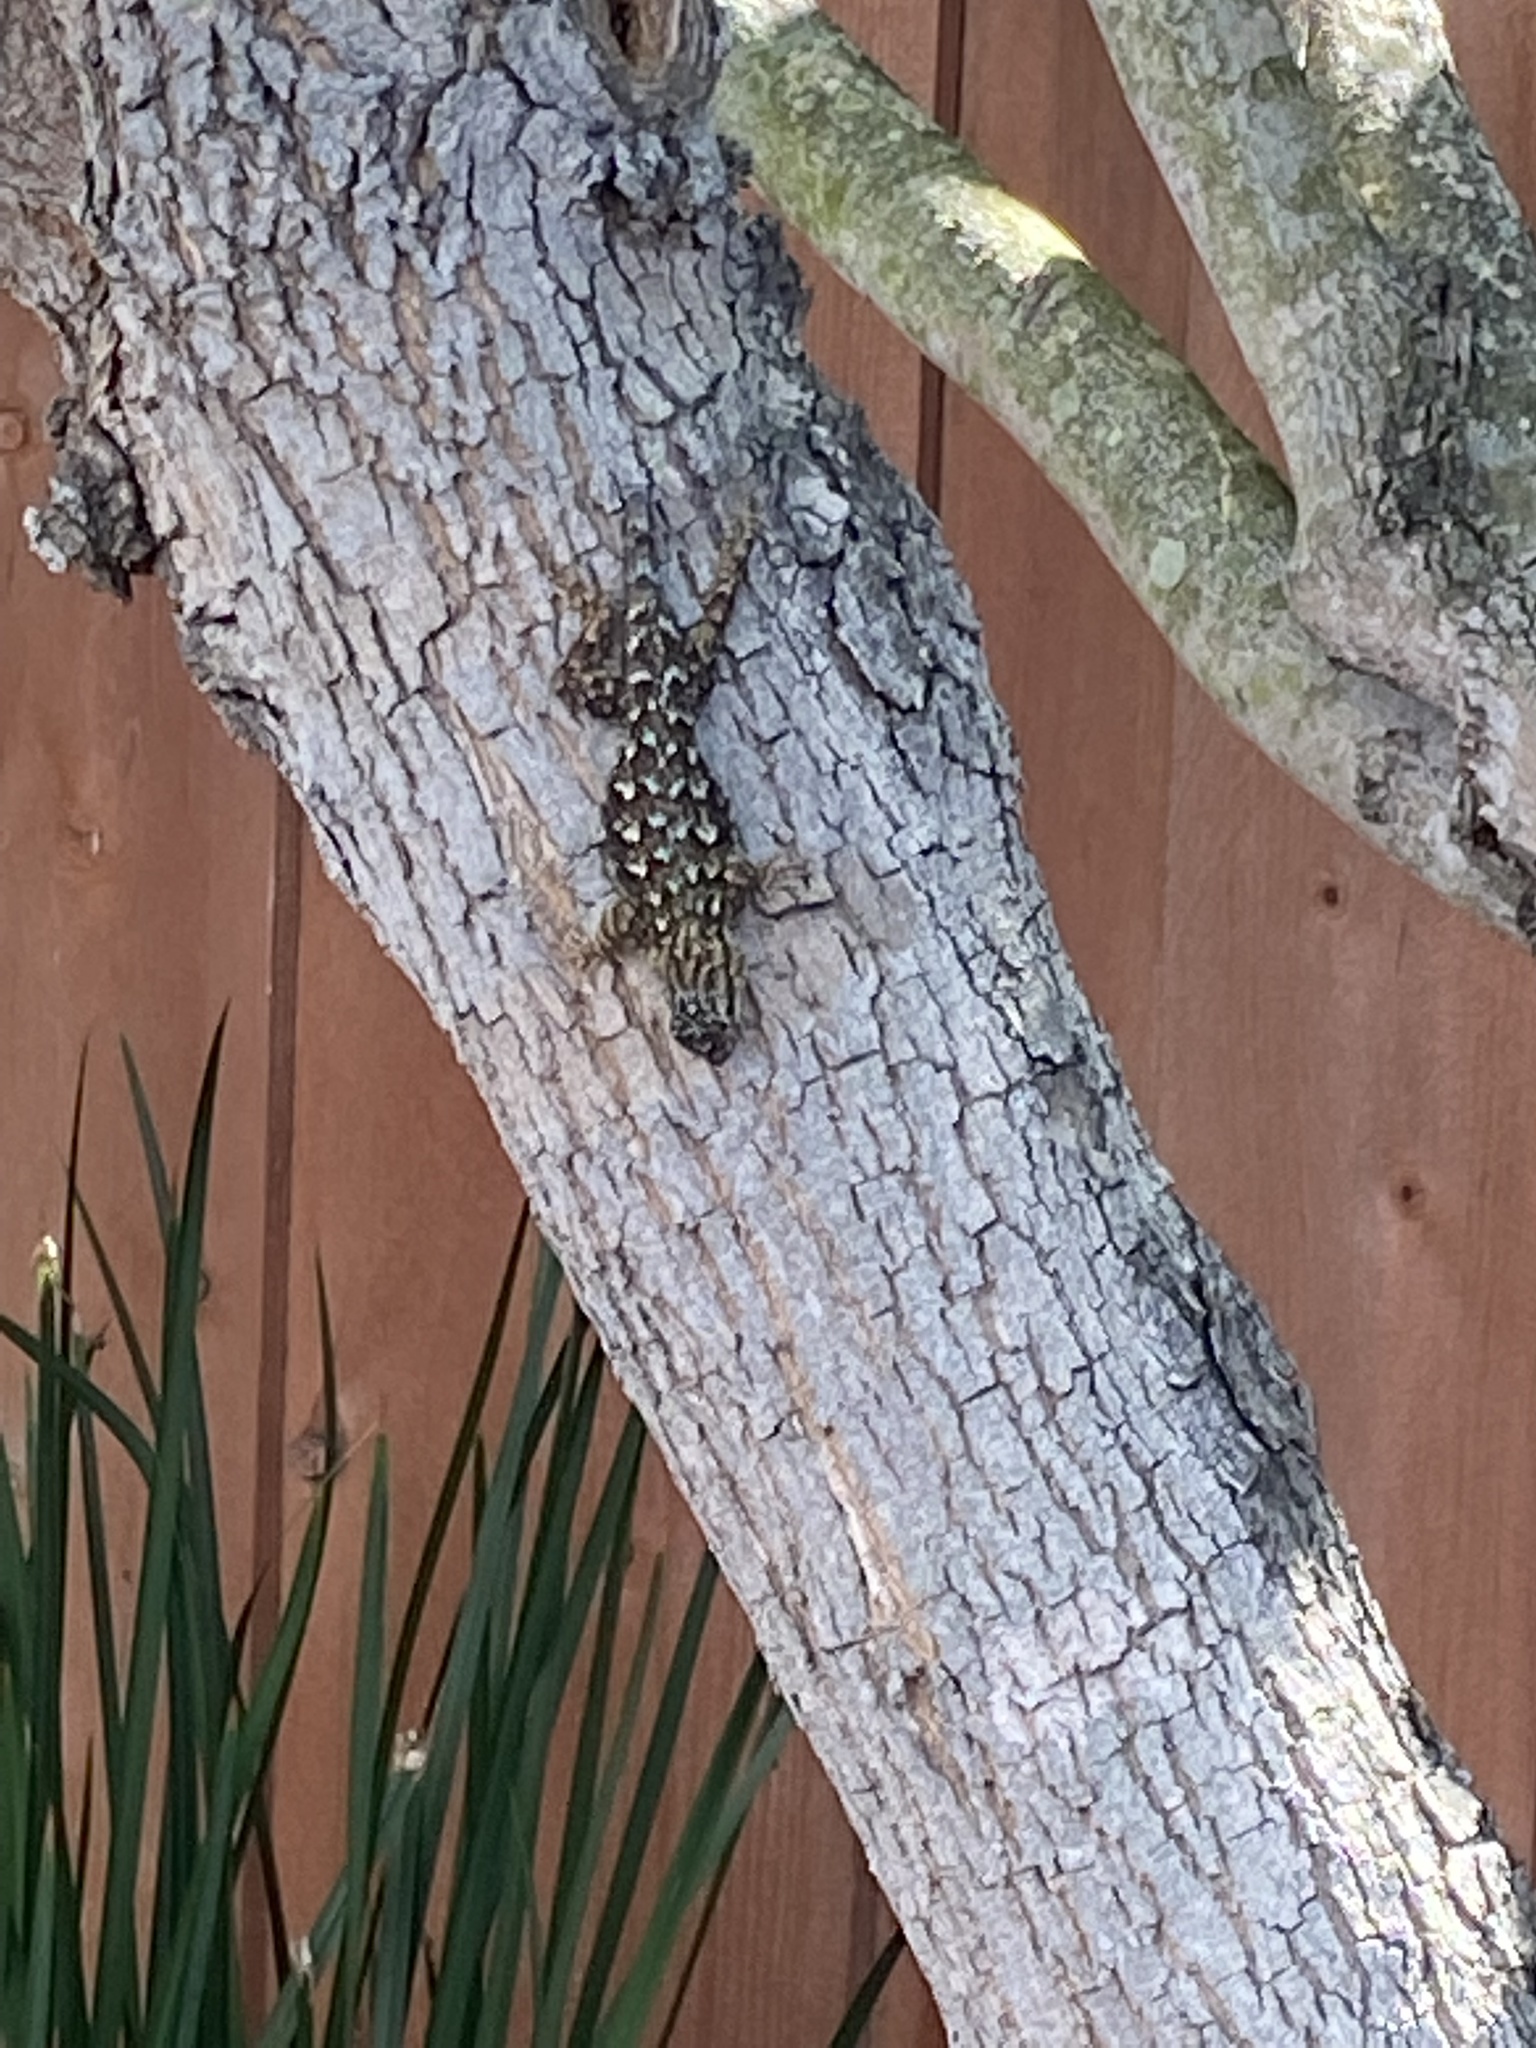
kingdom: Animalia
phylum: Chordata
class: Squamata
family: Phrynosomatidae
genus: Sceloporus
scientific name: Sceloporus occidentalis
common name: Western fence lizard
